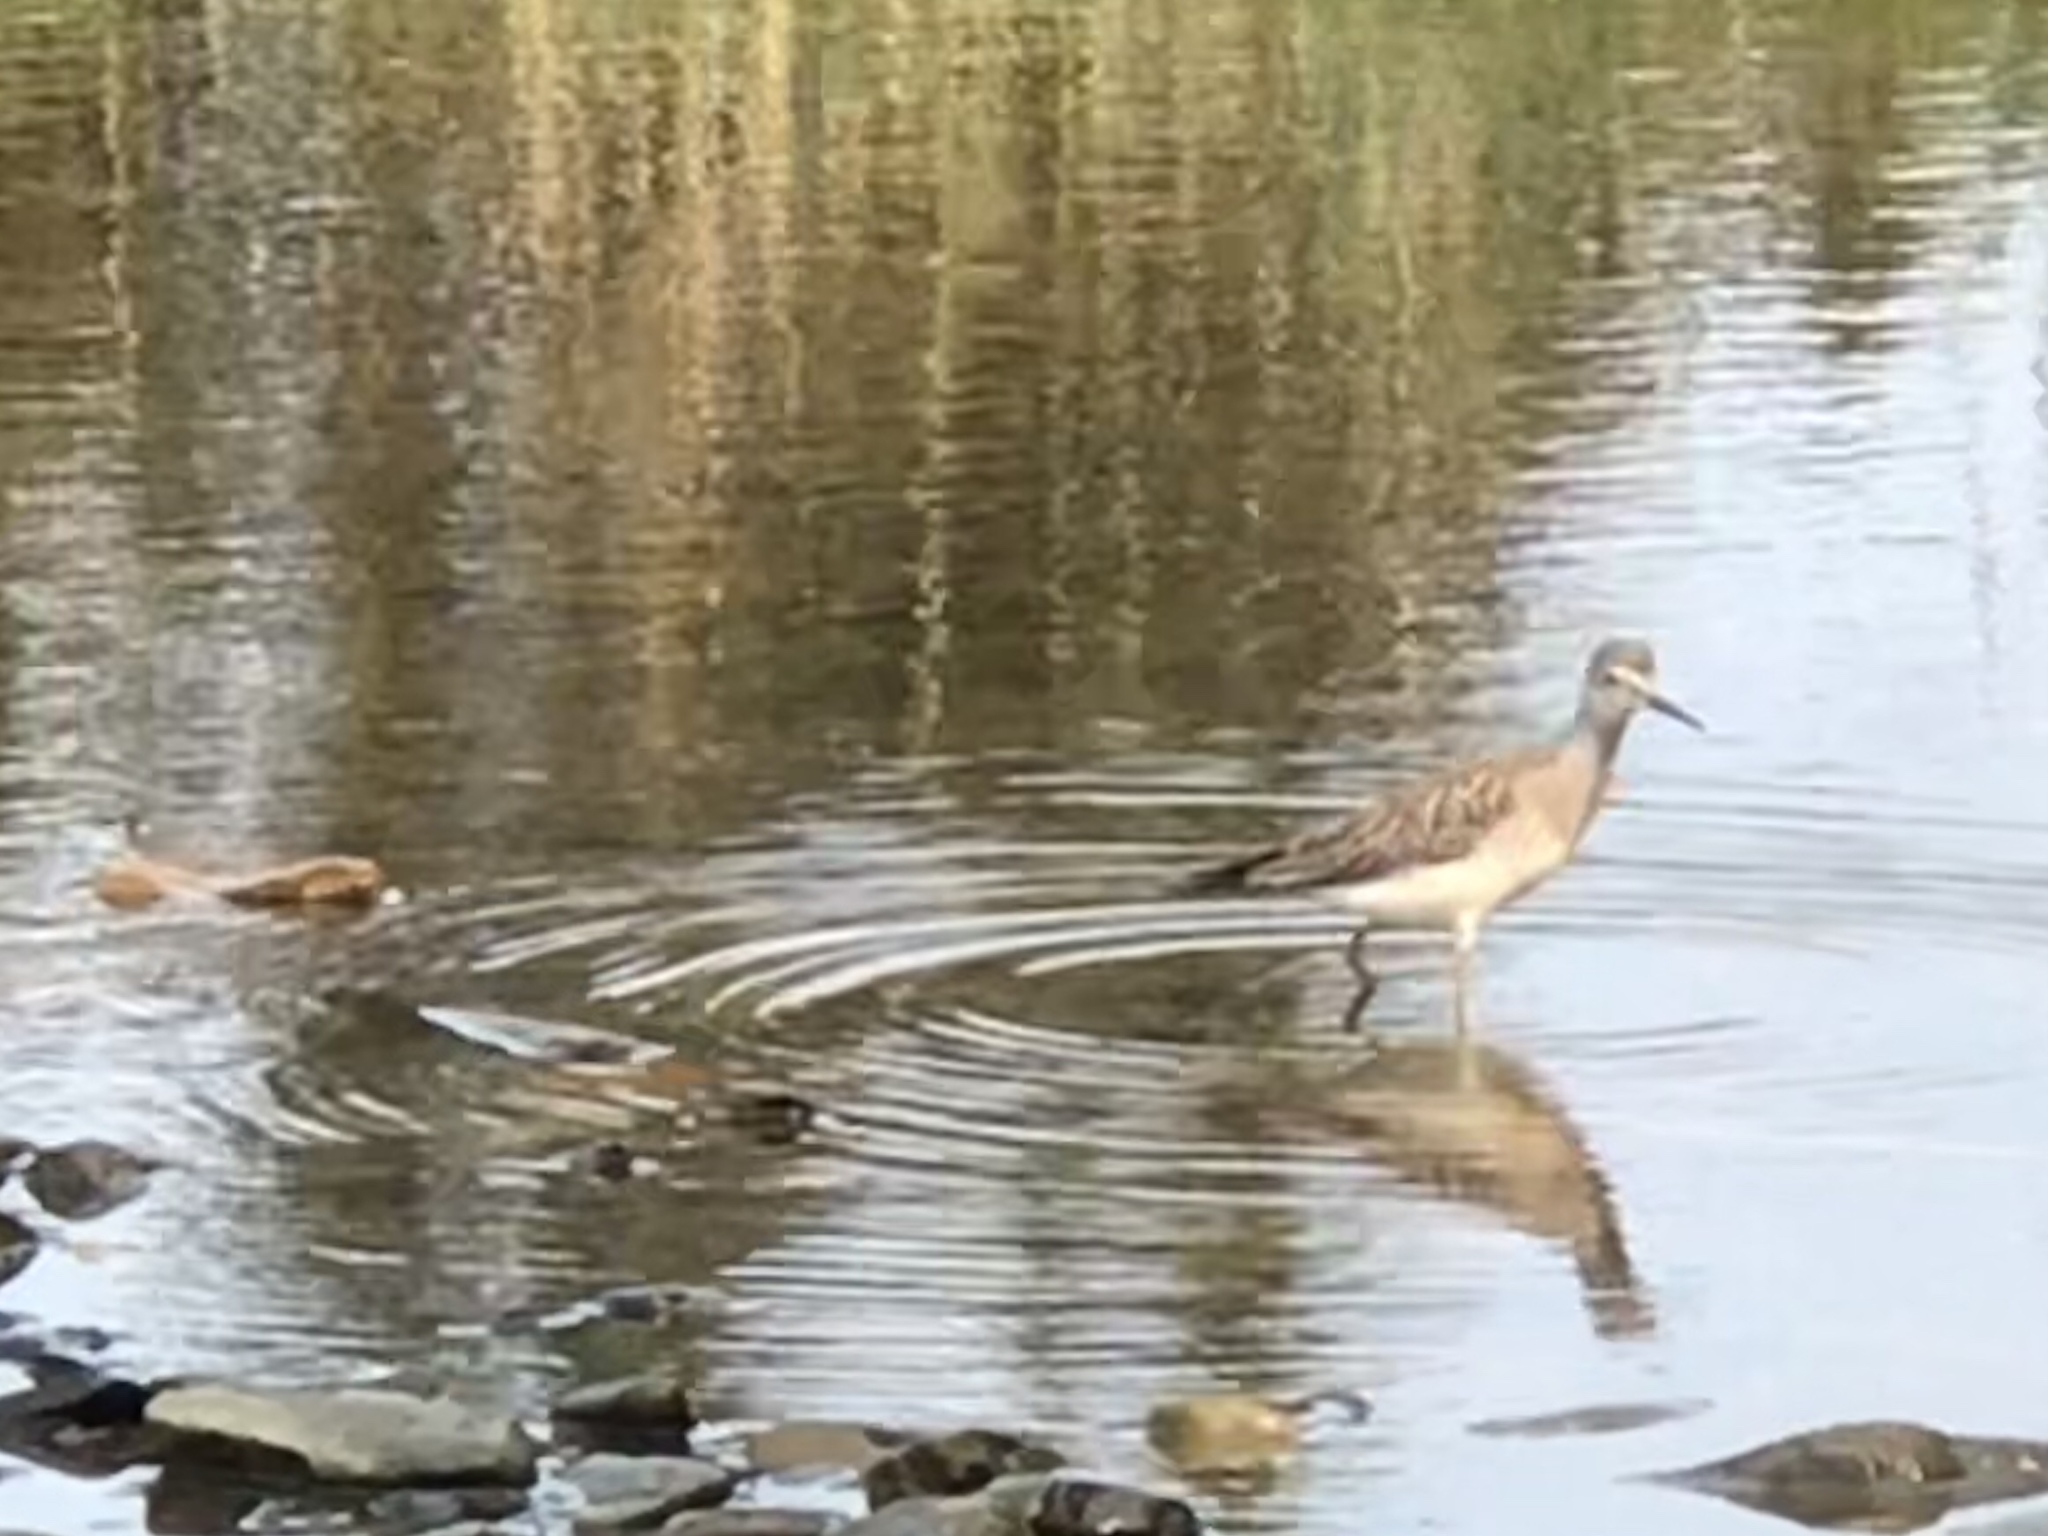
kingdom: Animalia
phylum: Chordata
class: Aves
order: Charadriiformes
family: Scolopacidae
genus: Tringa
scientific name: Tringa melanoleuca
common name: Greater yellowlegs
